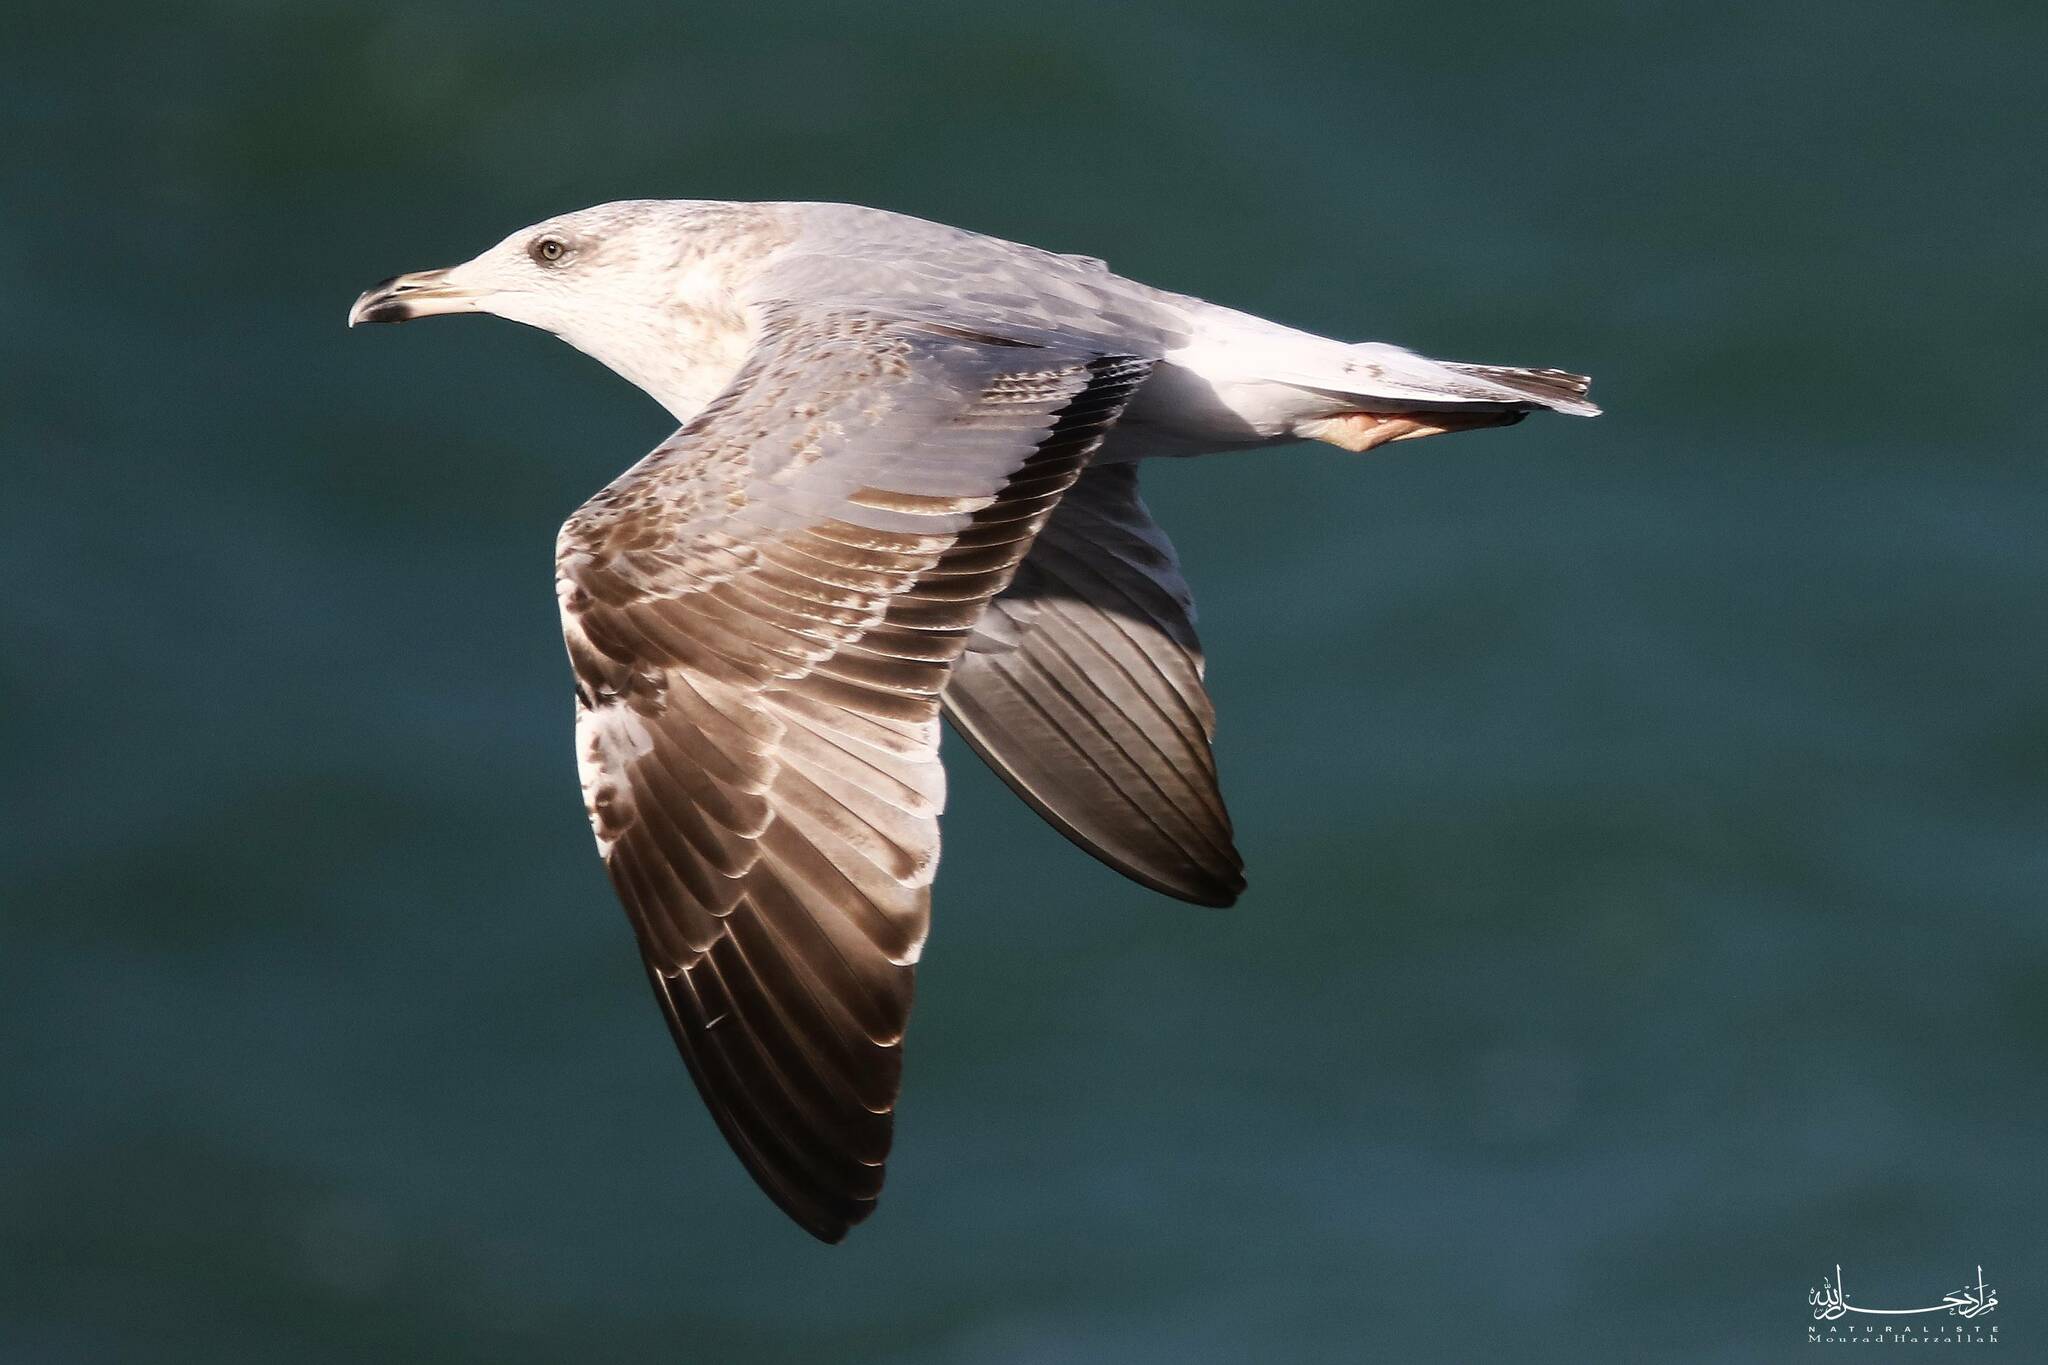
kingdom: Animalia
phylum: Chordata
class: Aves
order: Charadriiformes
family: Laridae
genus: Larus
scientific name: Larus michahellis
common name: Yellow-legged gull
